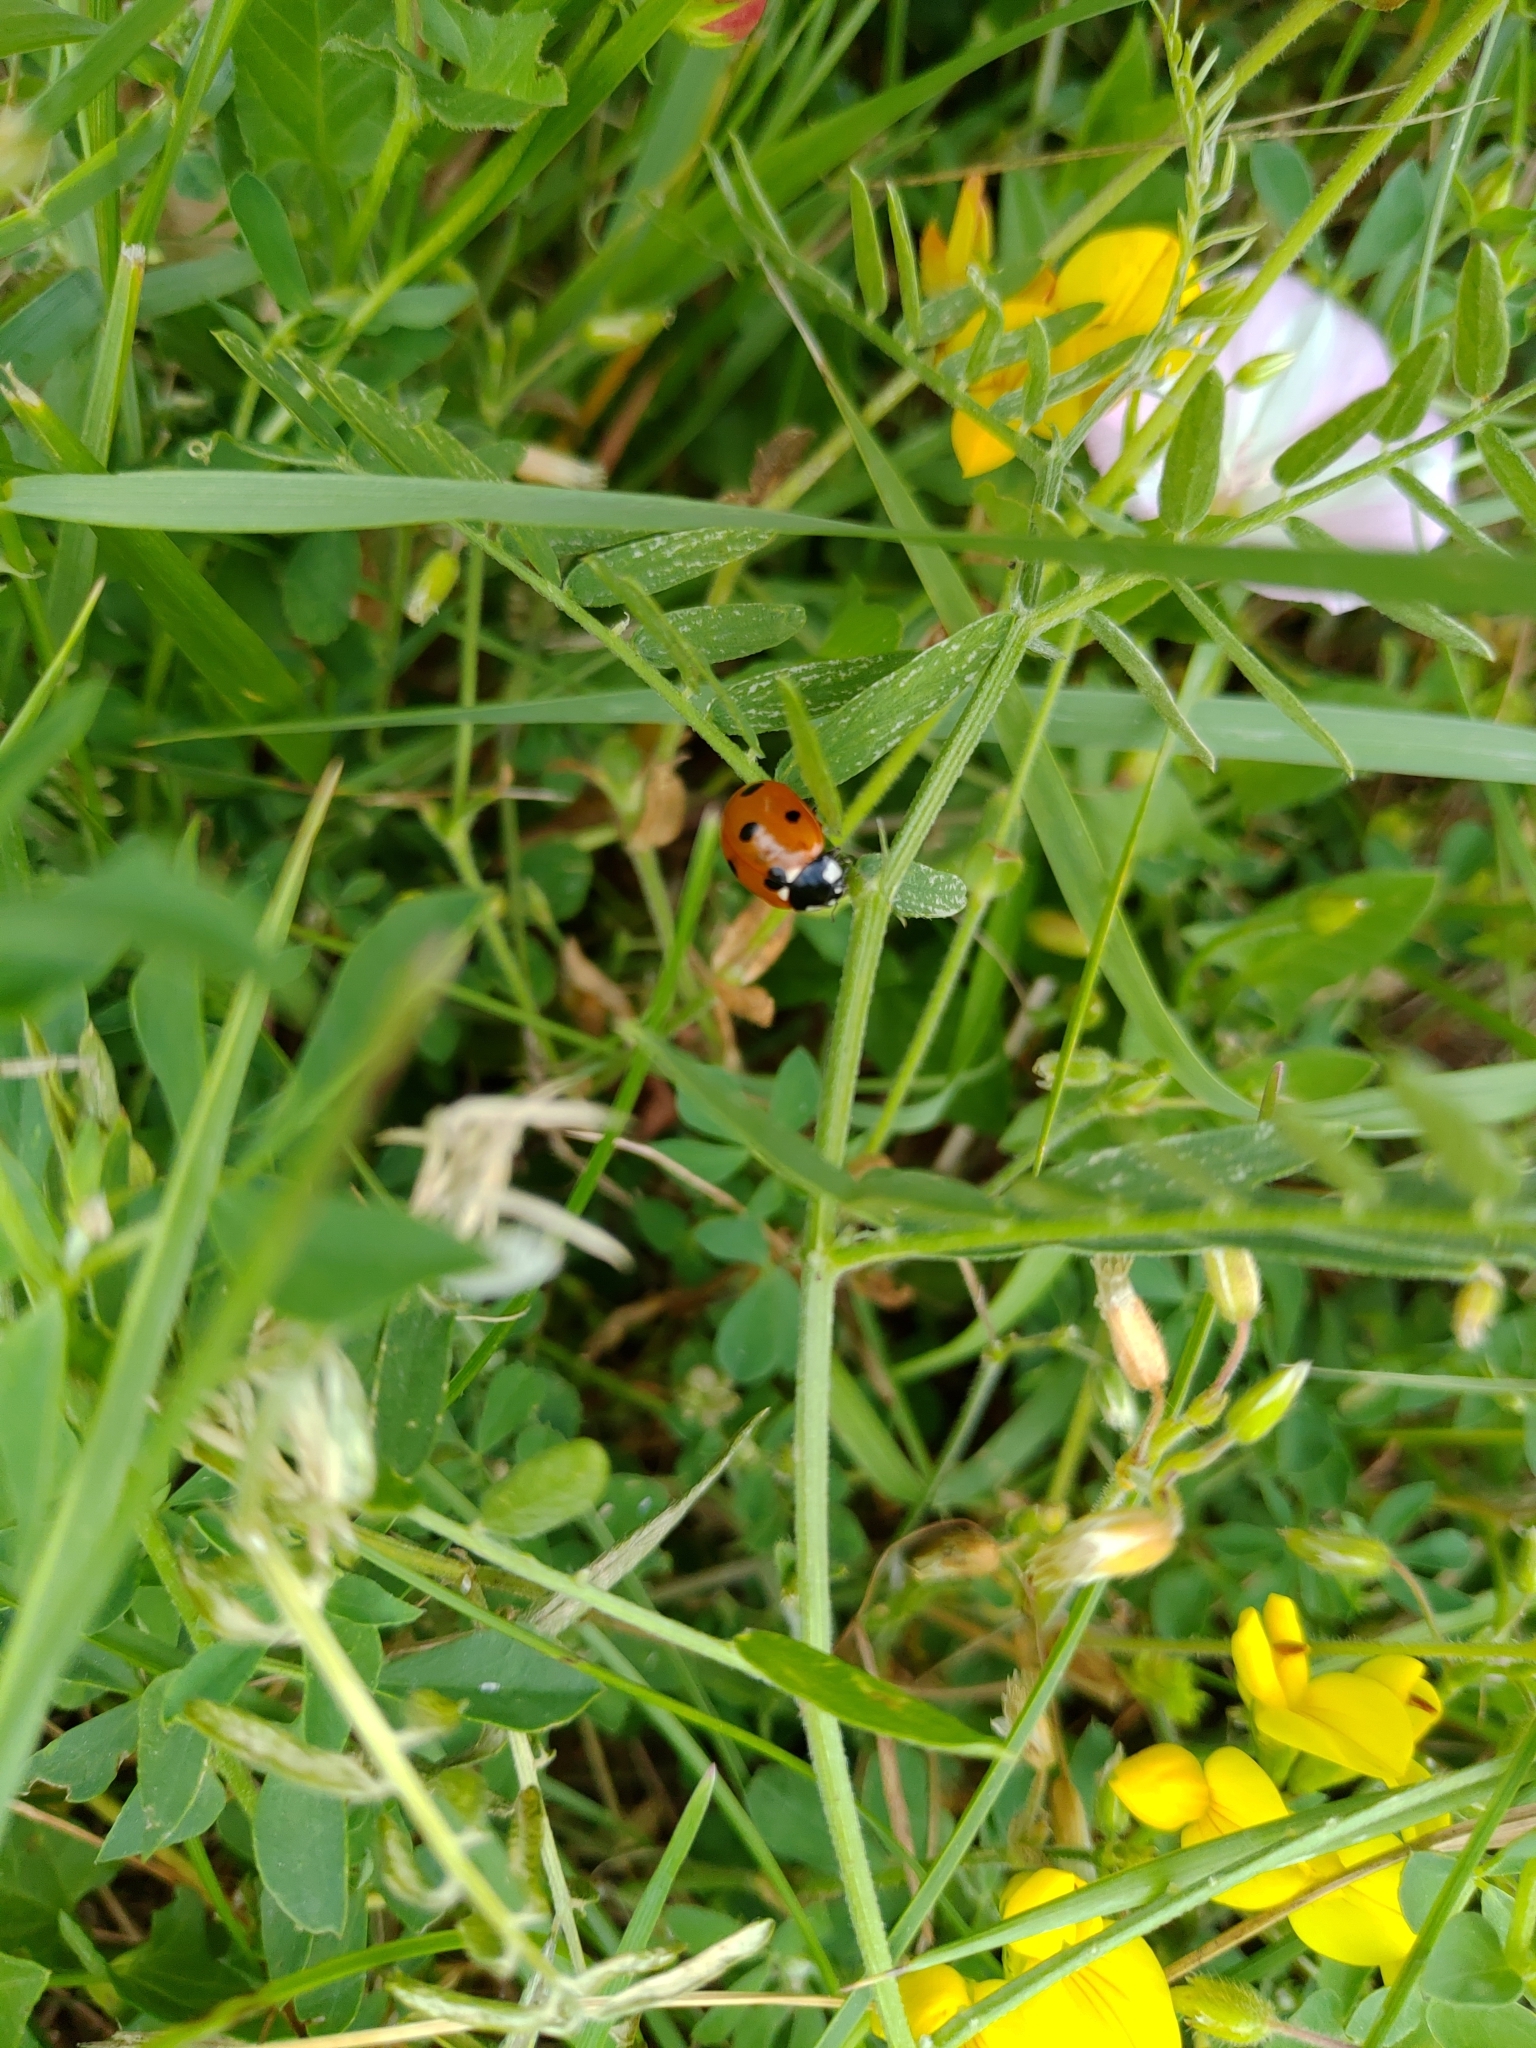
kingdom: Animalia
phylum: Arthropoda
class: Insecta
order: Coleoptera
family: Coccinellidae
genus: Coccinella
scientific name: Coccinella septempunctata
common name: Sevenspotted lady beetle
